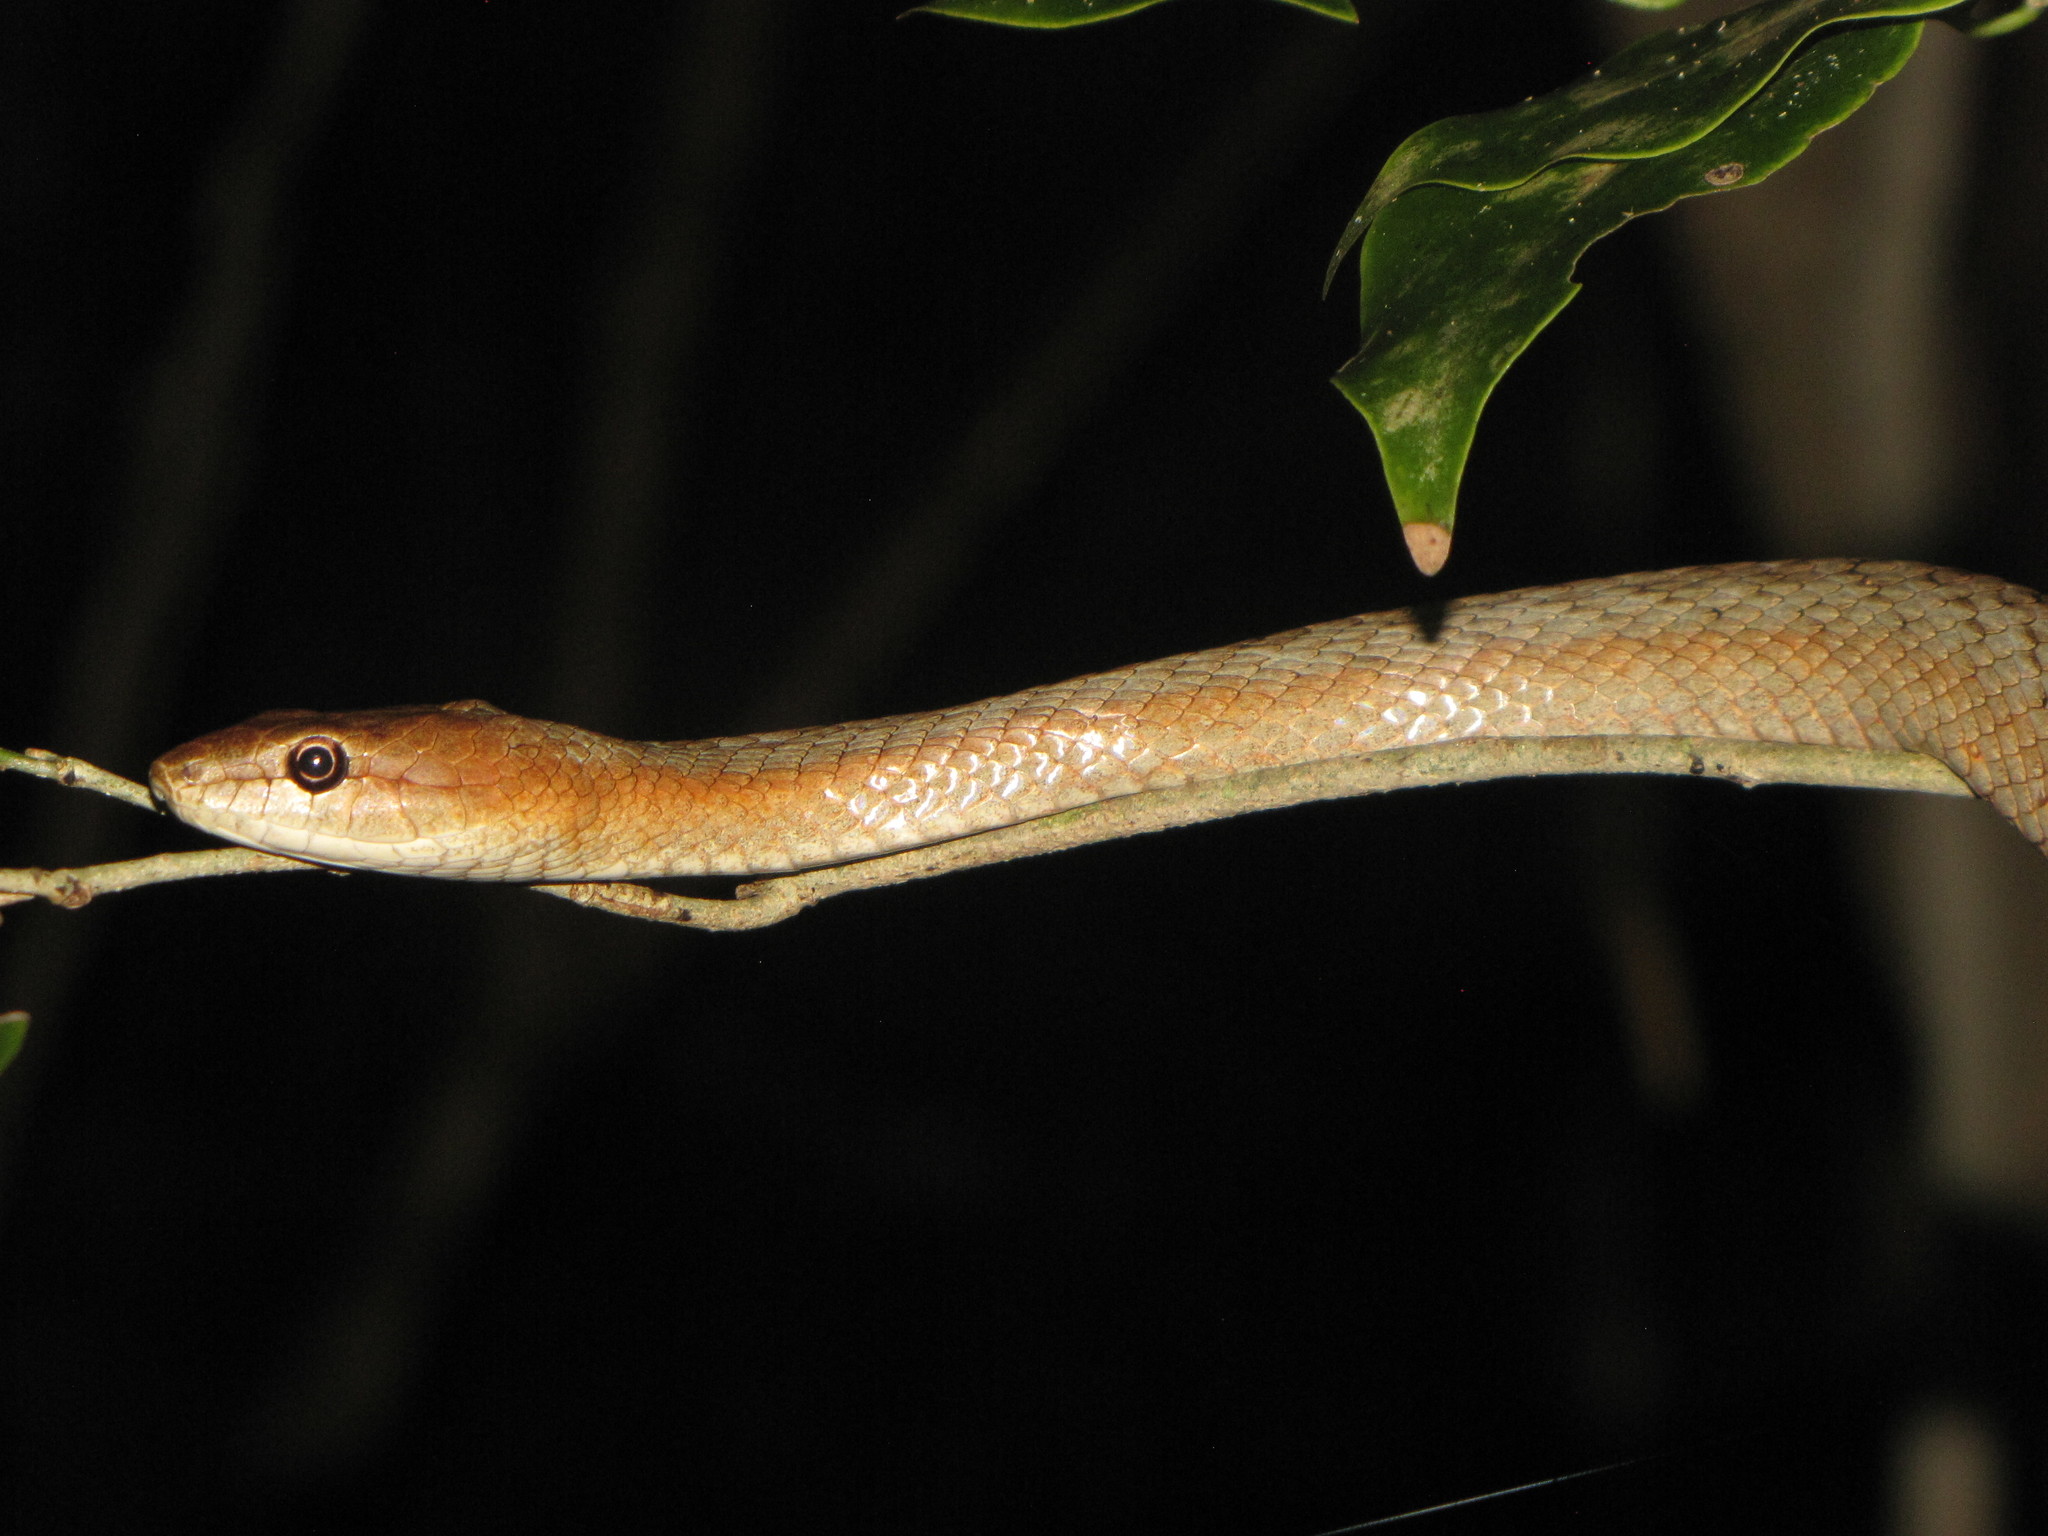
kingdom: Animalia
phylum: Chordata
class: Squamata
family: Pseudoxyrhophiidae
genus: Ithycyphus
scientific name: Ithycyphus miniatus
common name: Tiny night snake
